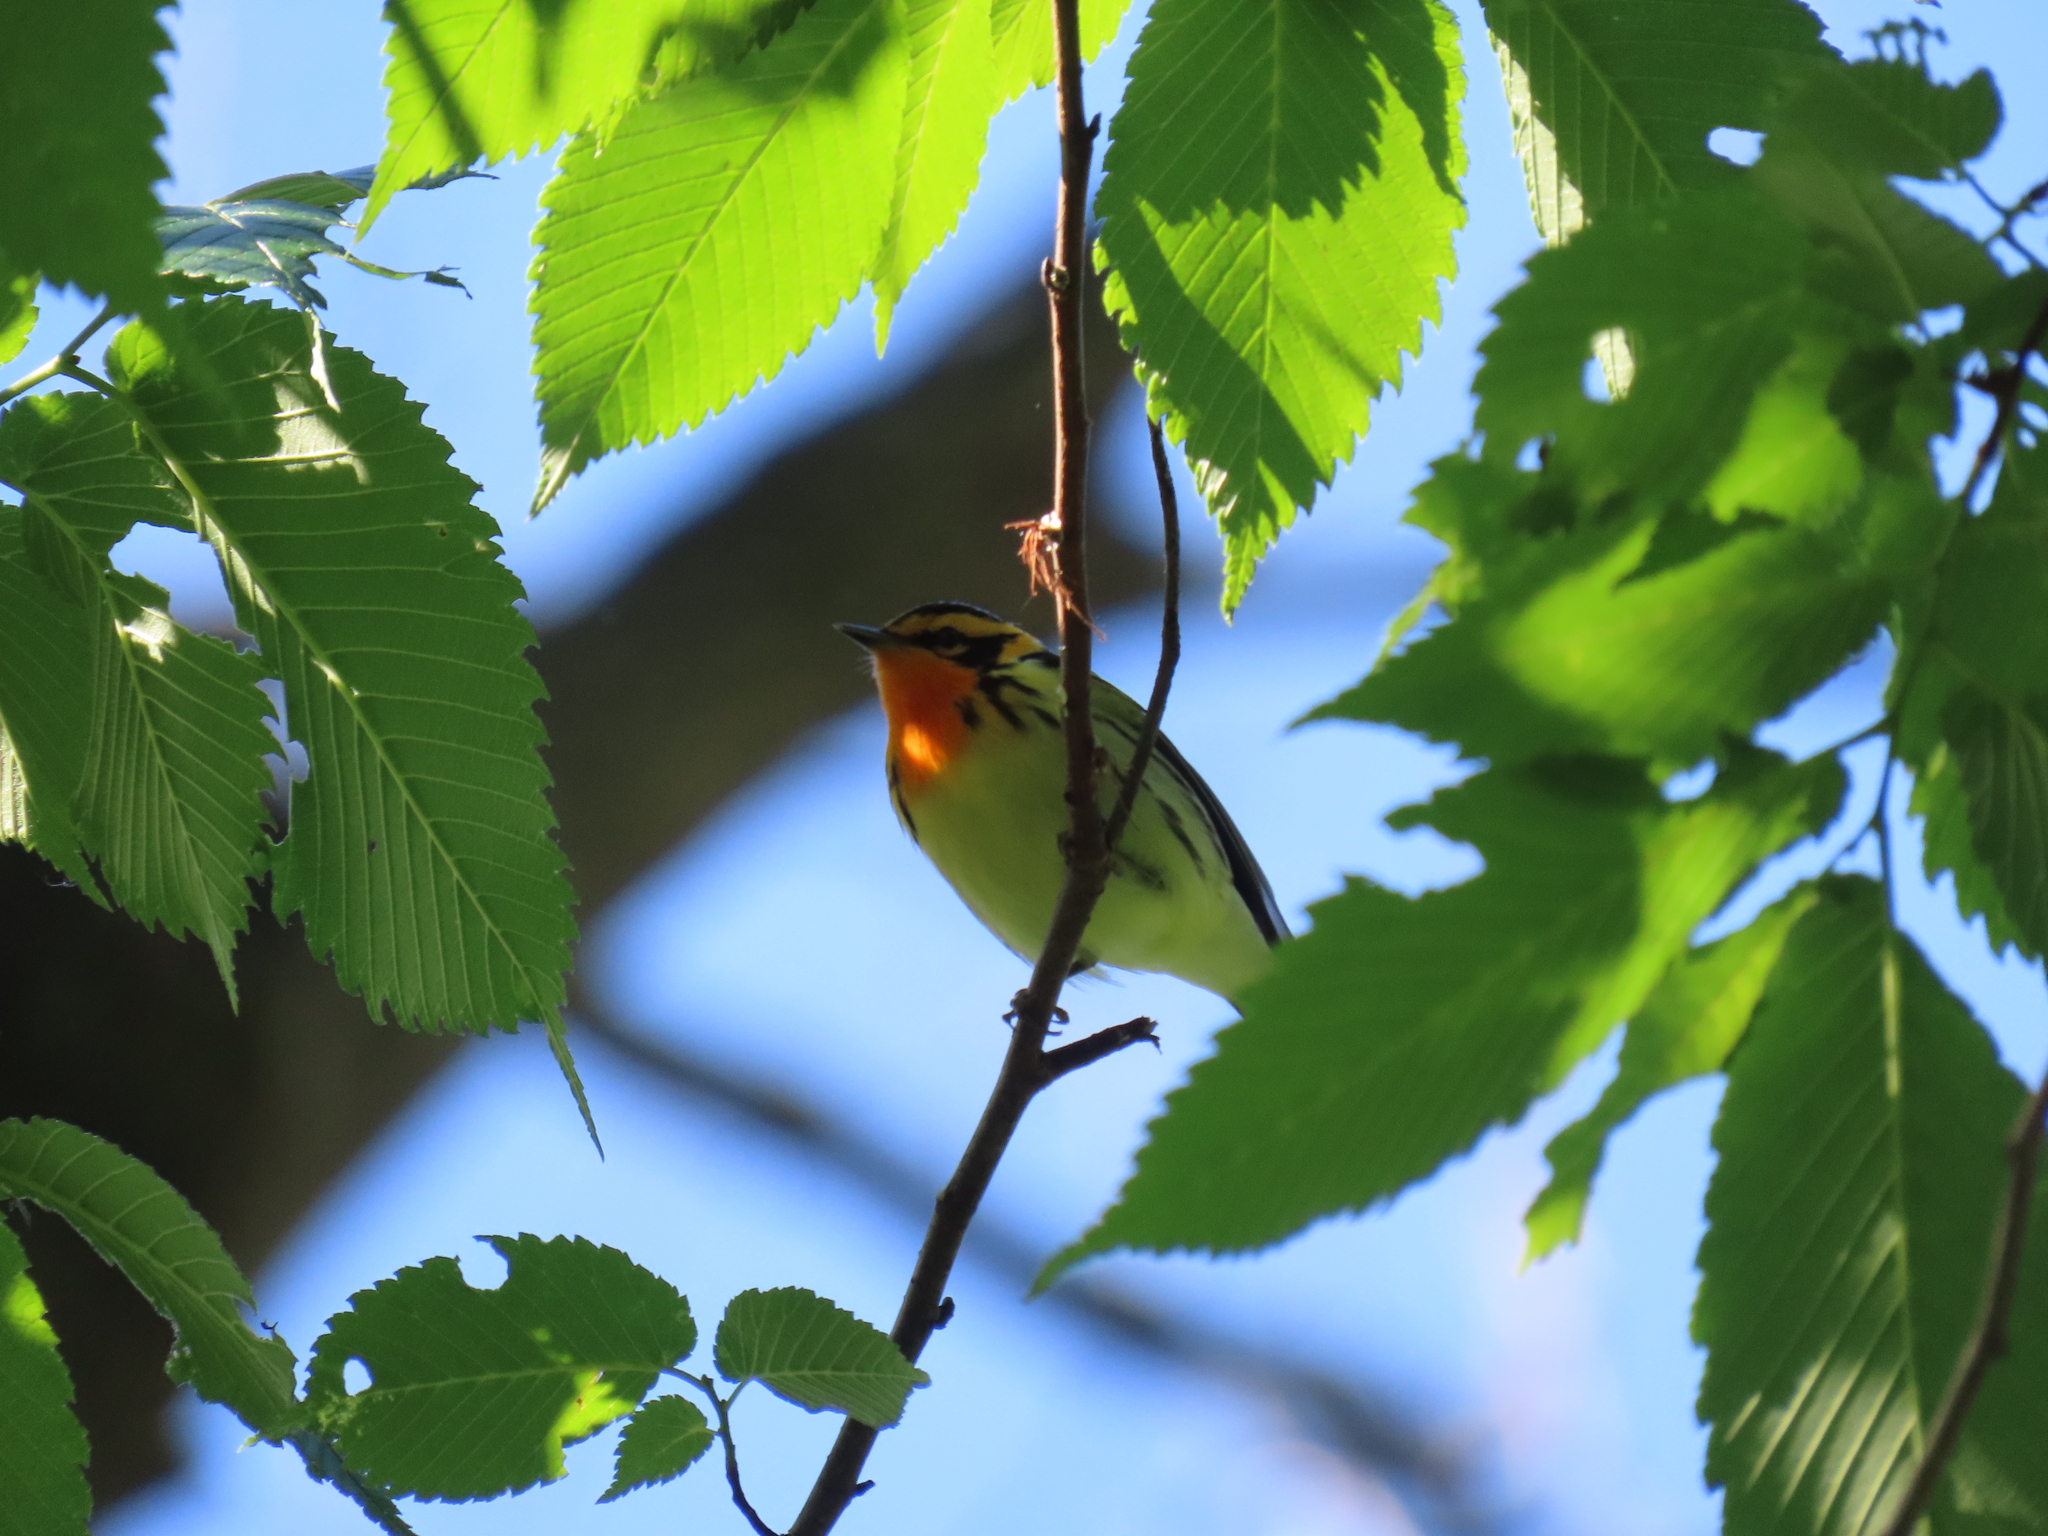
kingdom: Animalia
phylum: Chordata
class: Aves
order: Passeriformes
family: Parulidae
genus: Setophaga
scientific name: Setophaga fusca
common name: Blackburnian warbler
